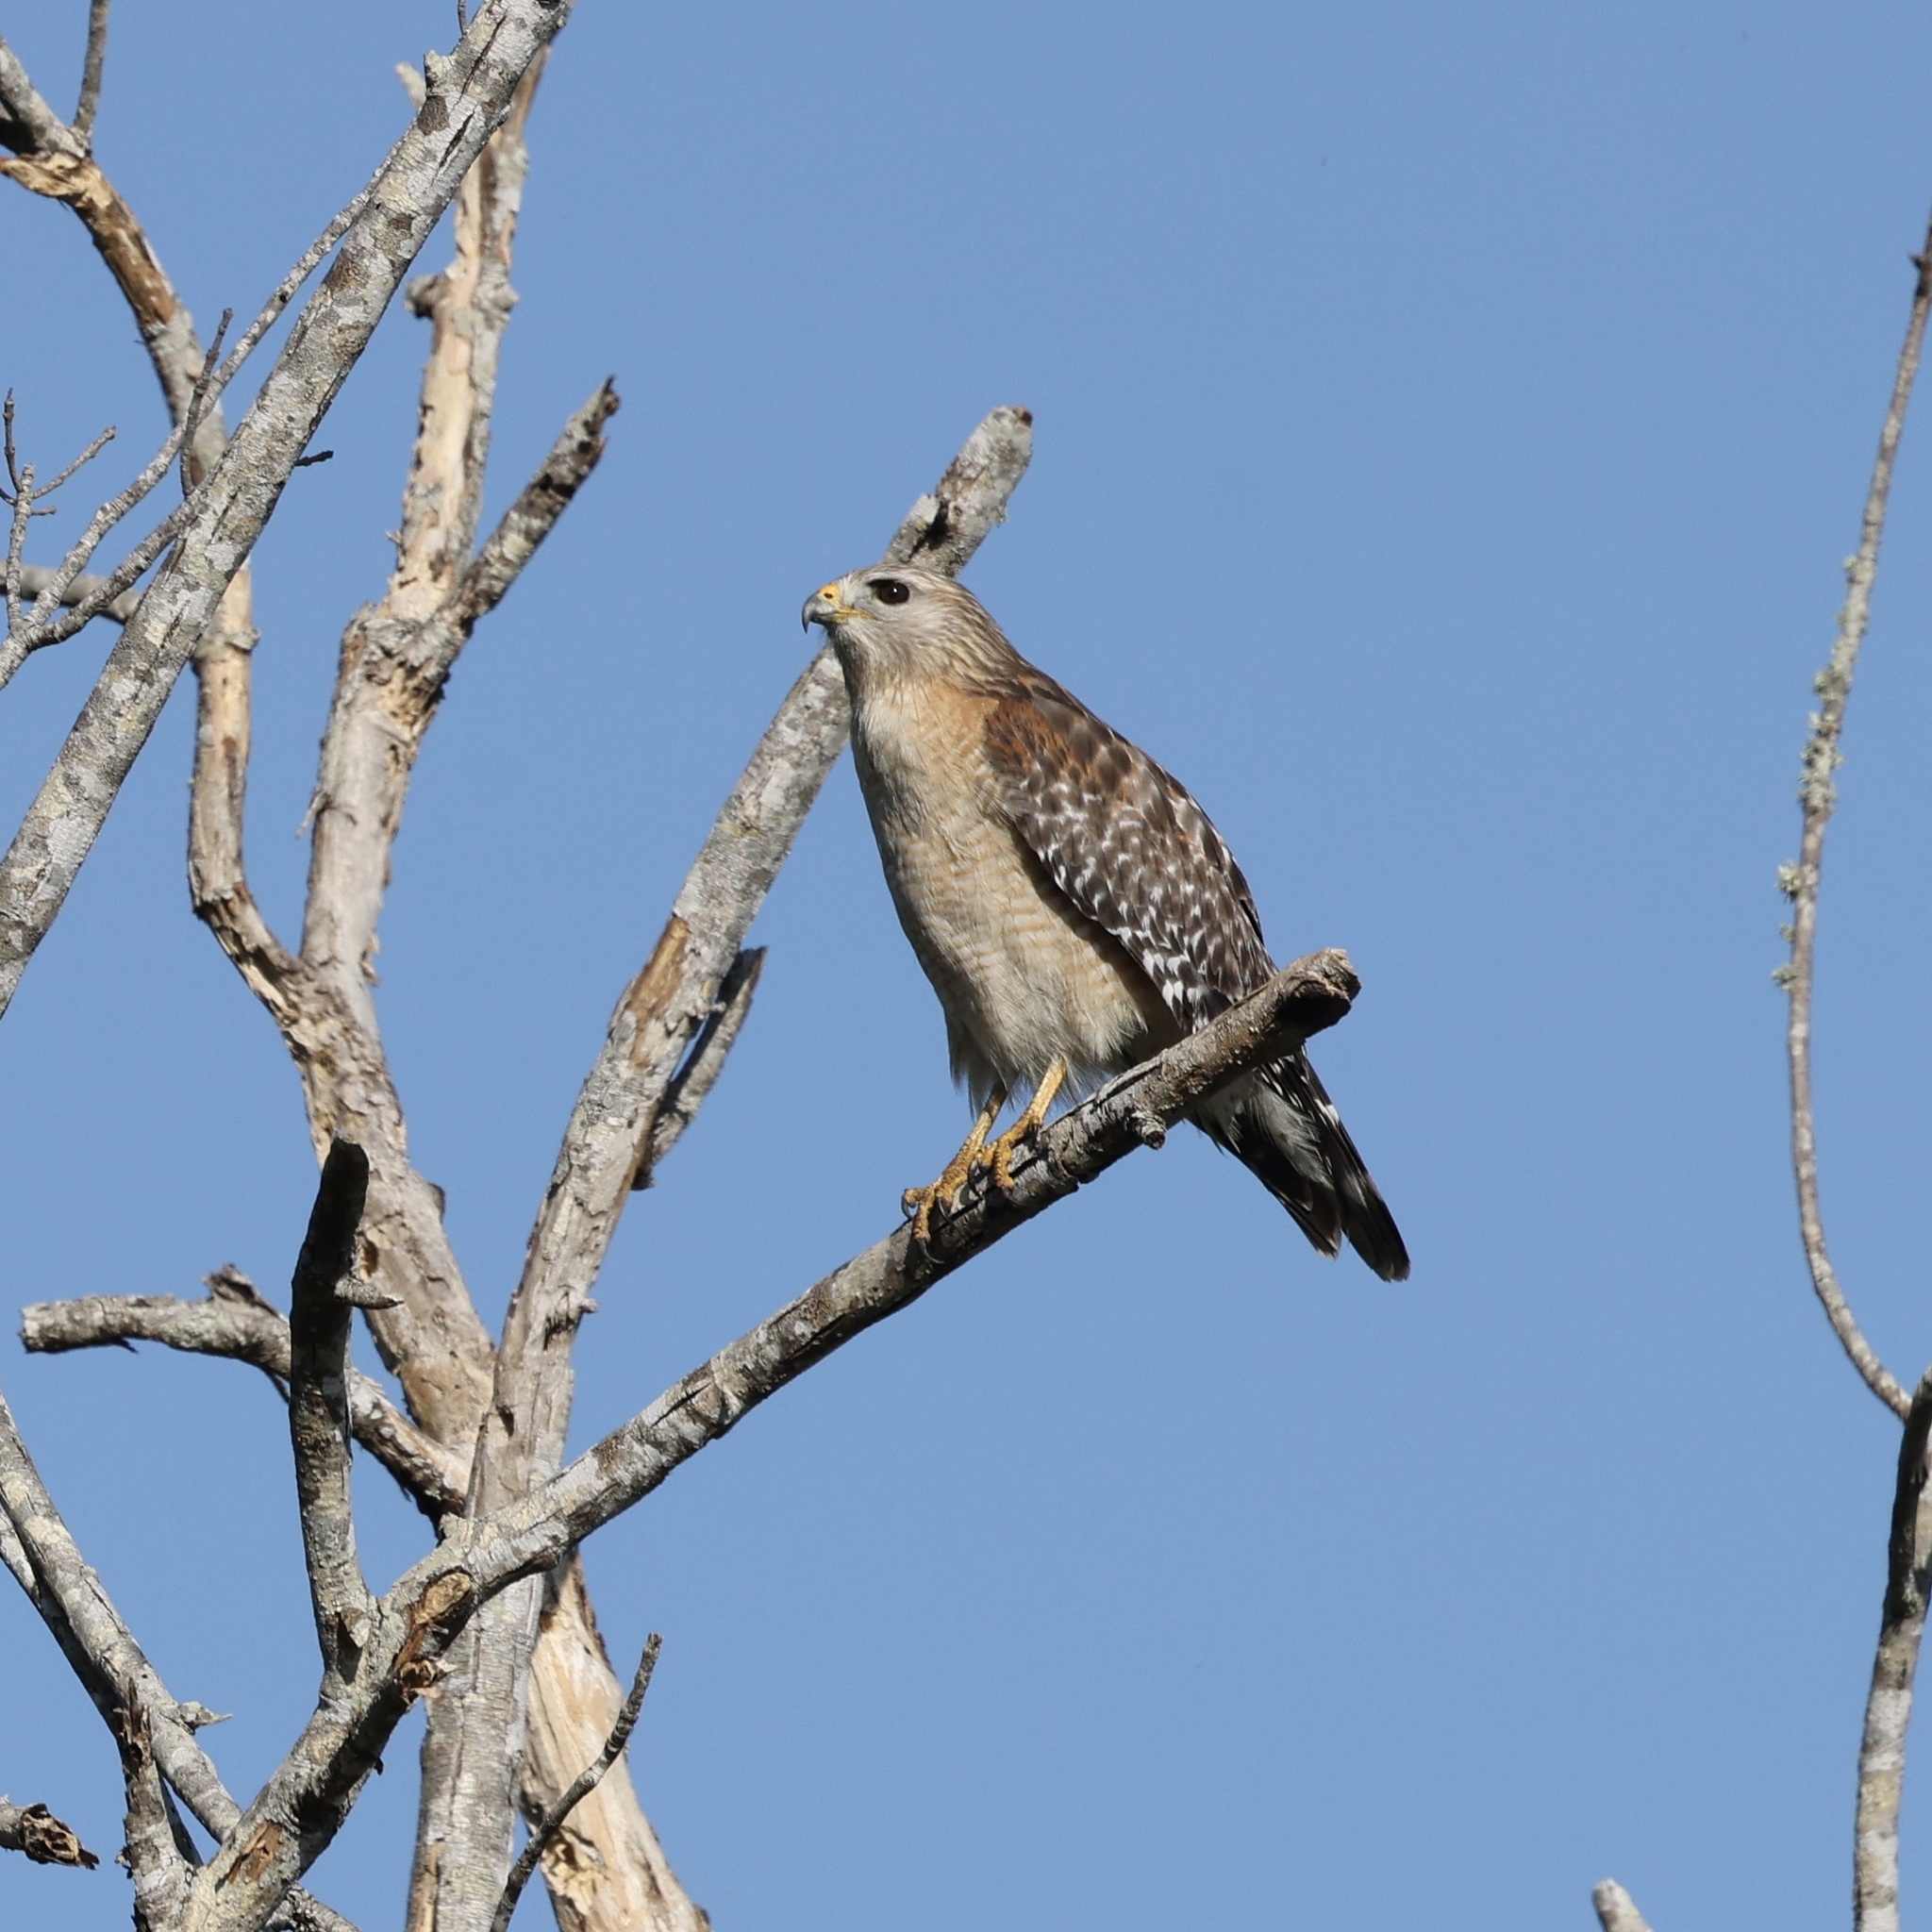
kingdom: Animalia
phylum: Chordata
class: Aves
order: Accipitriformes
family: Accipitridae
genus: Buteo
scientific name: Buteo lineatus
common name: Red-shouldered hawk
